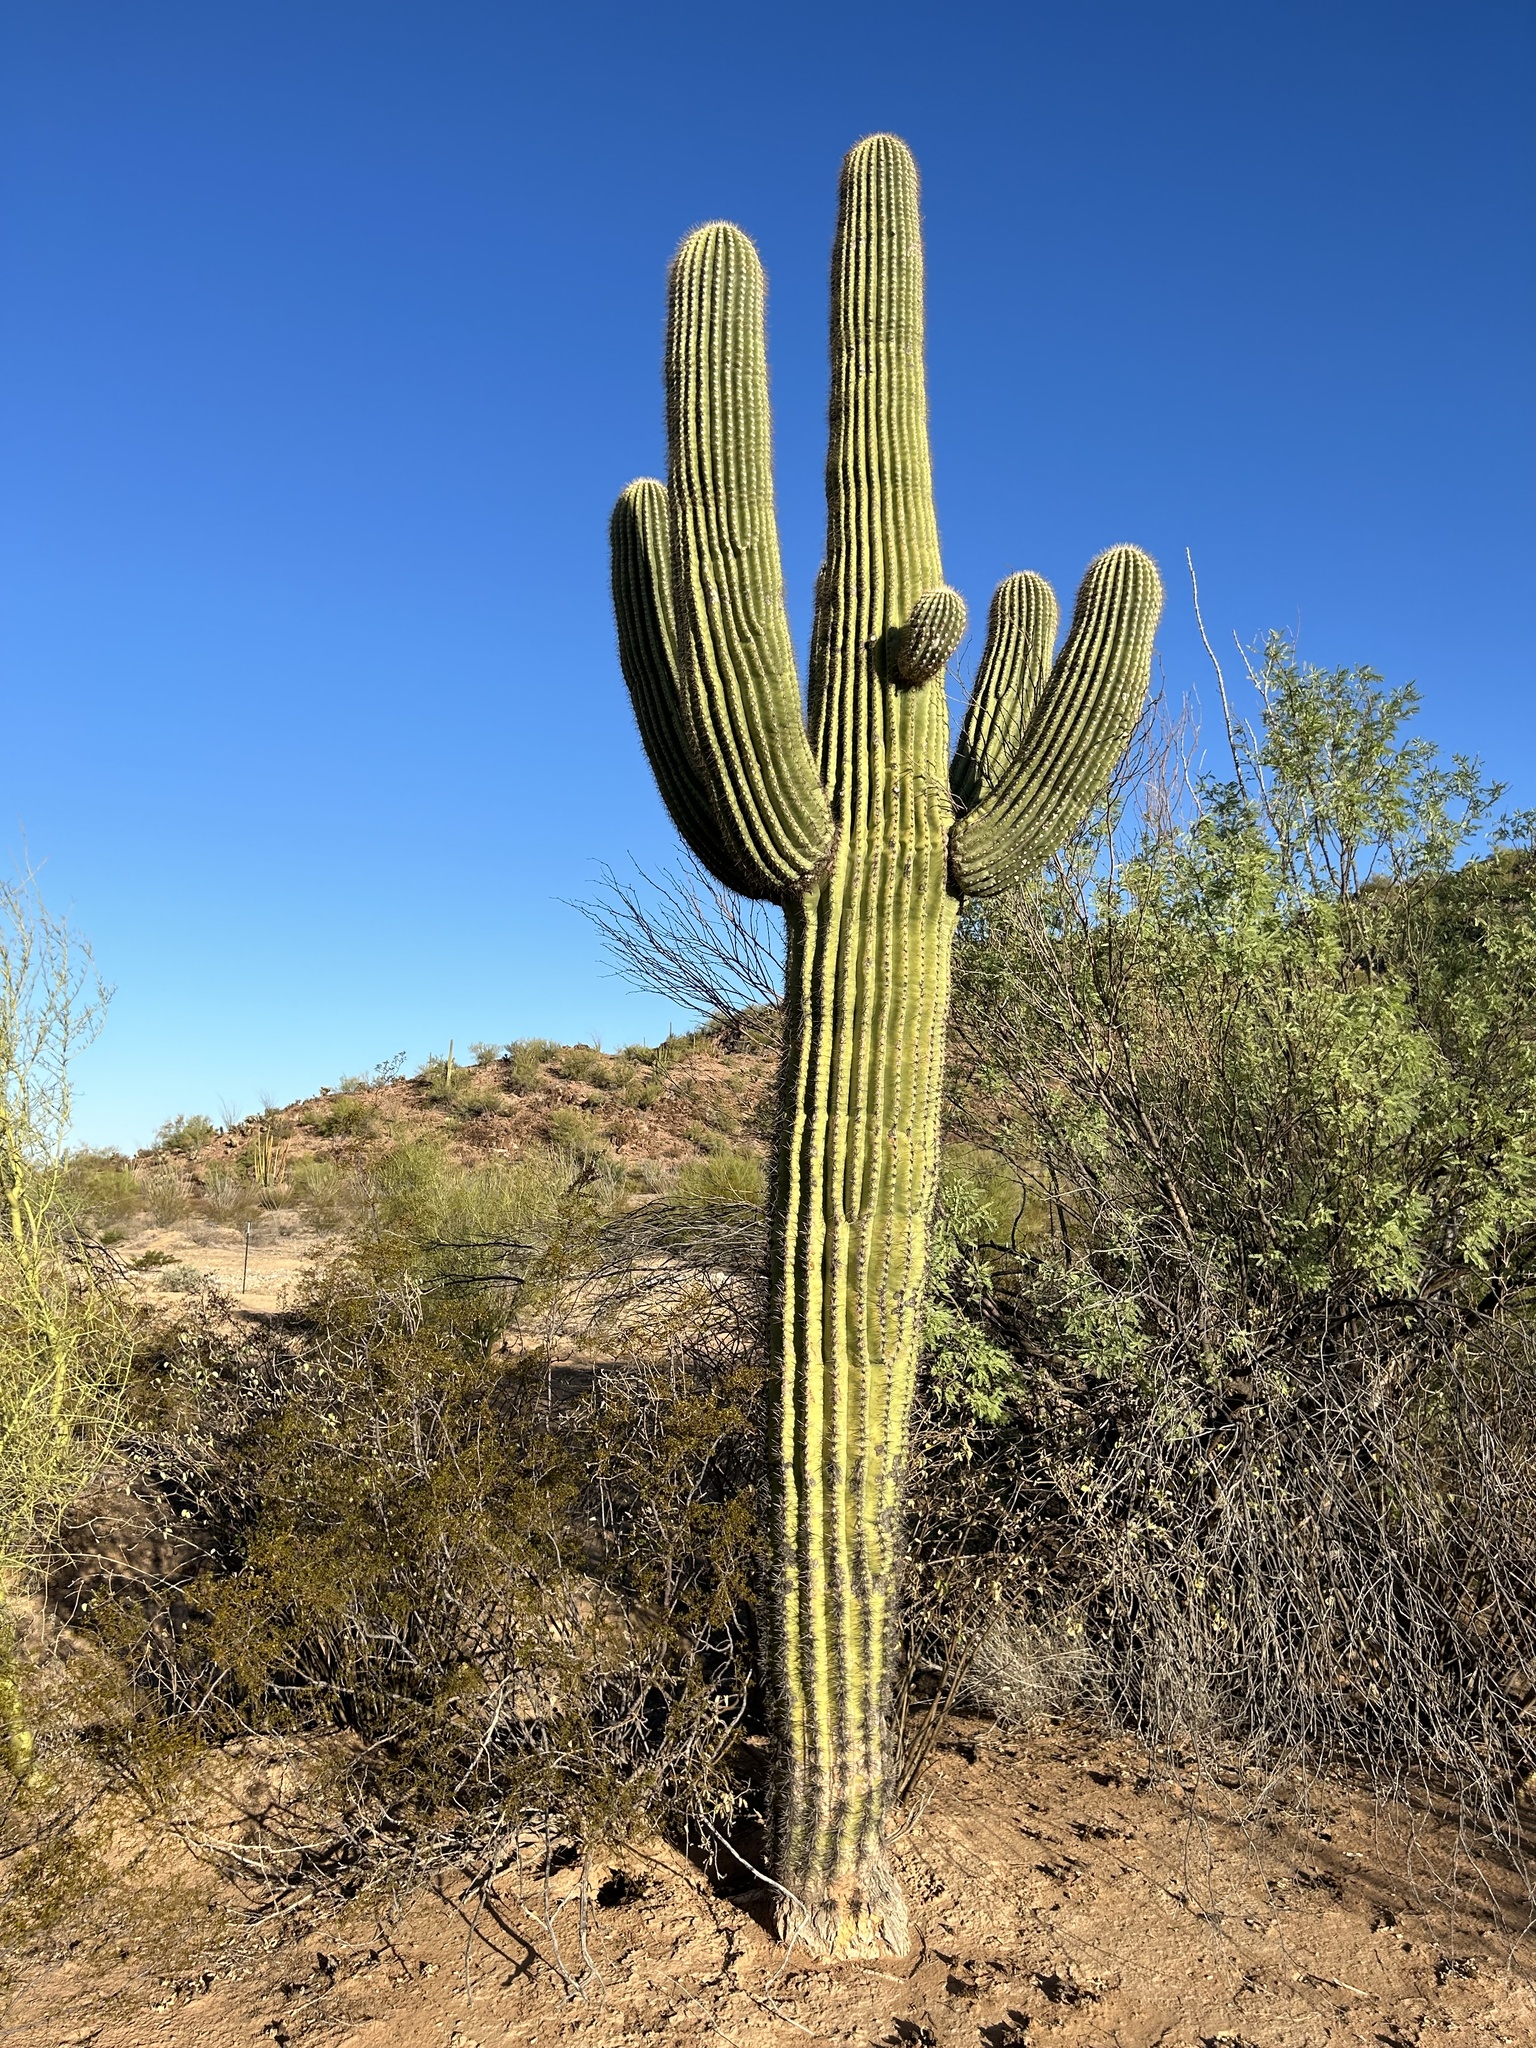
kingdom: Plantae
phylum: Tracheophyta
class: Magnoliopsida
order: Caryophyllales
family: Cactaceae
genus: Carnegiea
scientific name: Carnegiea gigantea
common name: Saguaro
